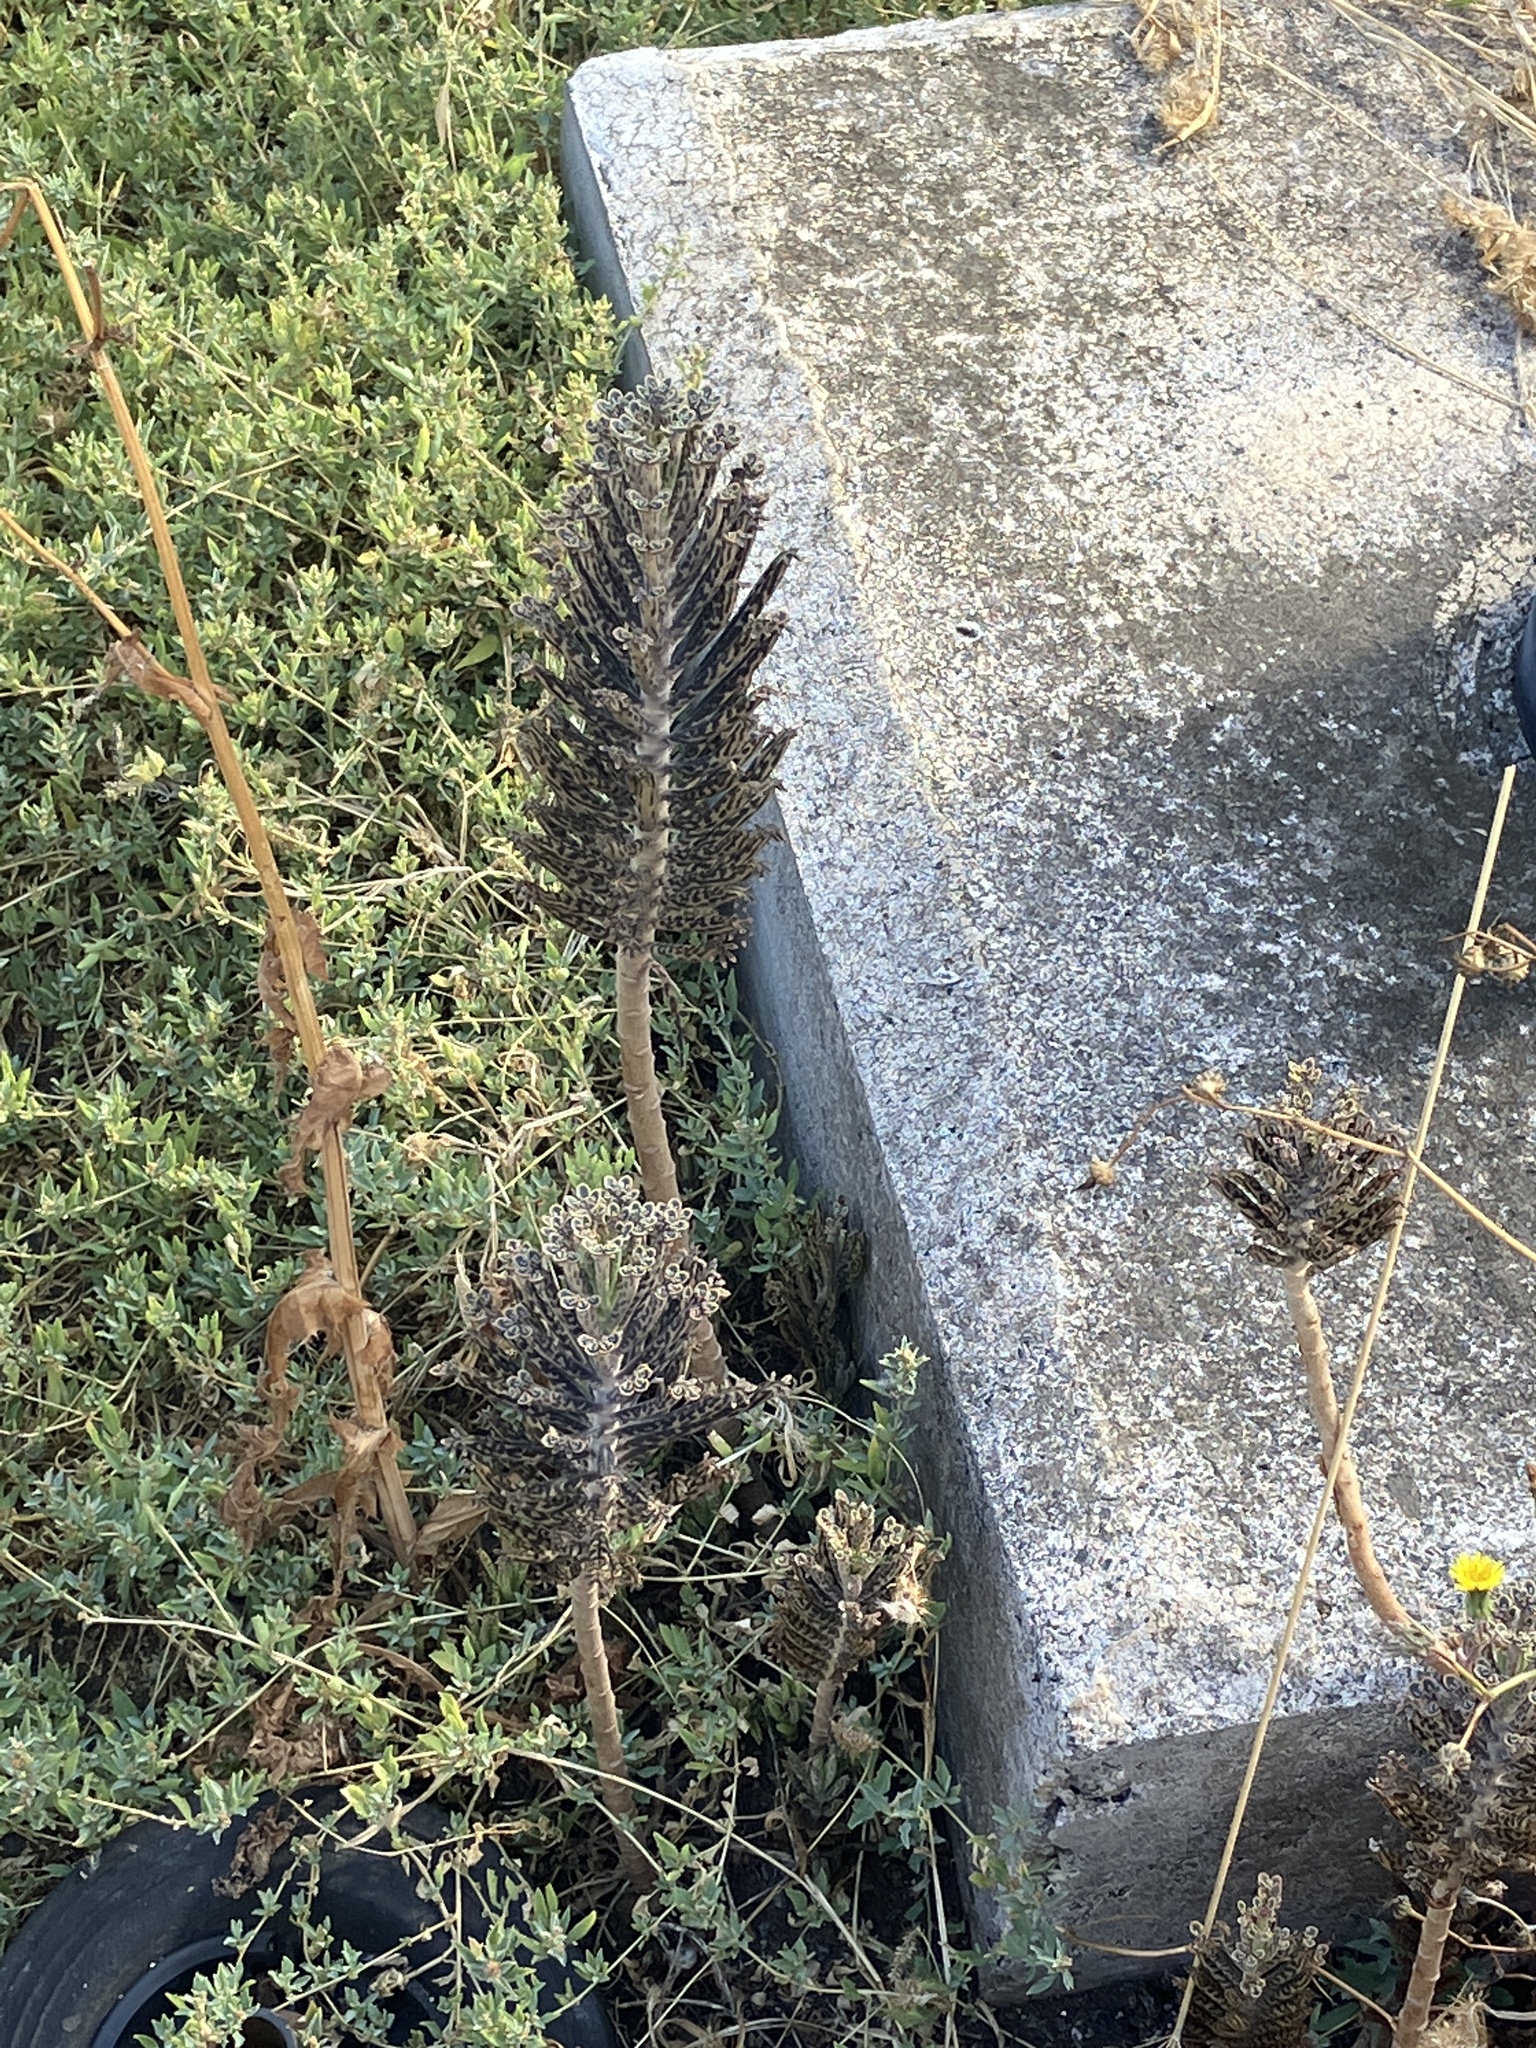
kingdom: Plantae
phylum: Tracheophyta
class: Magnoliopsida
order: Saxifragales
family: Crassulaceae
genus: Kalanchoe
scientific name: Kalanchoe delagoensis
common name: Chandelier plant
